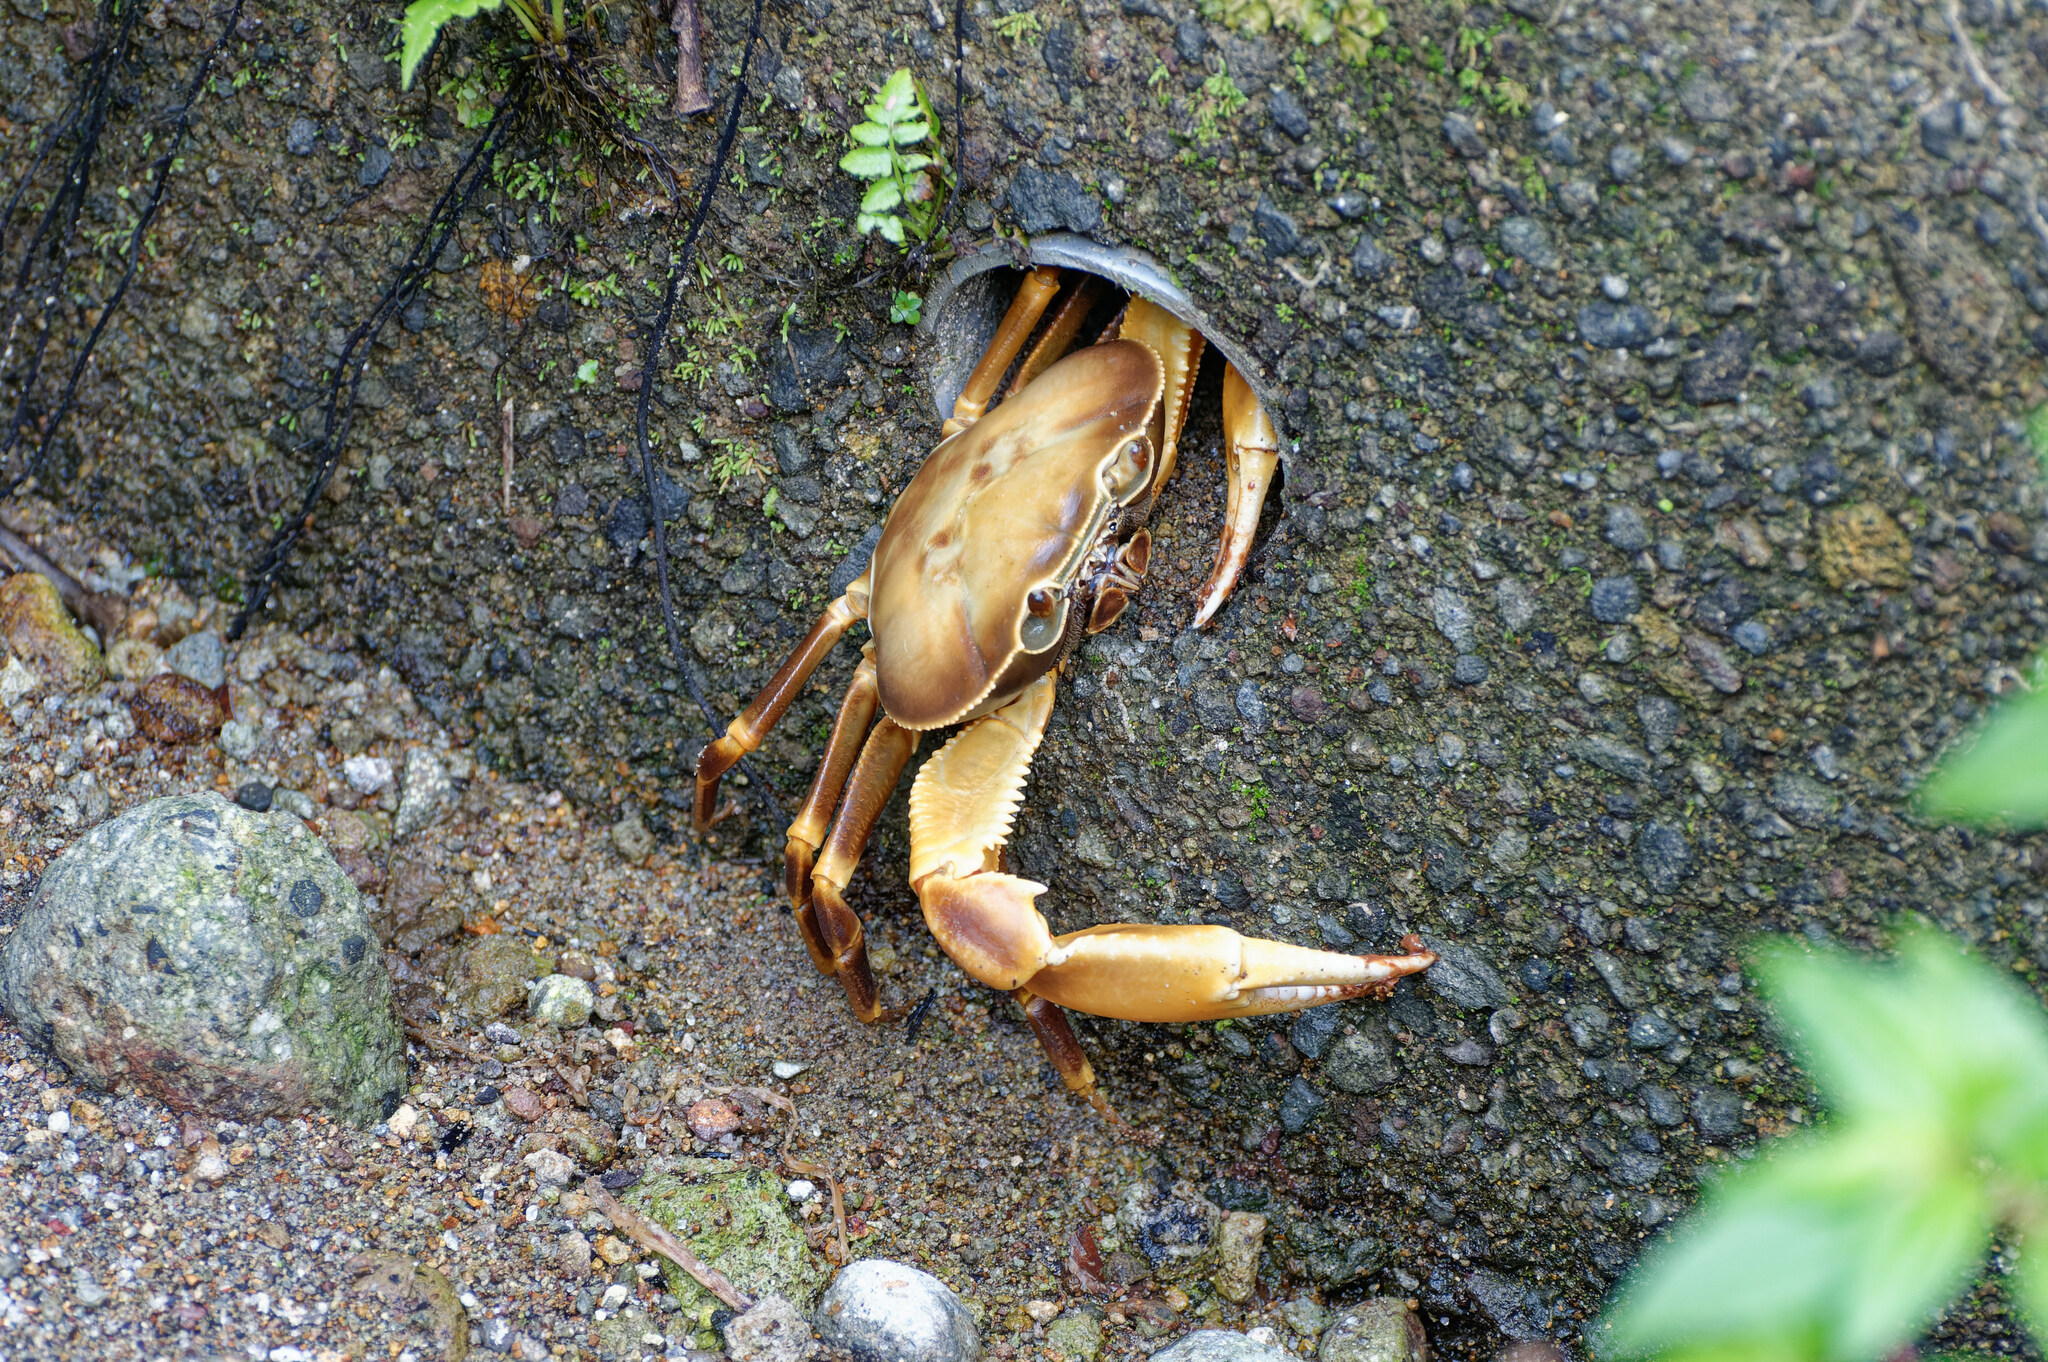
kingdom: Animalia
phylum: Arthropoda
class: Malacostraca
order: Decapoda
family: Pseudothelphusidae
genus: Guinotia
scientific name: Guinotia dentata
